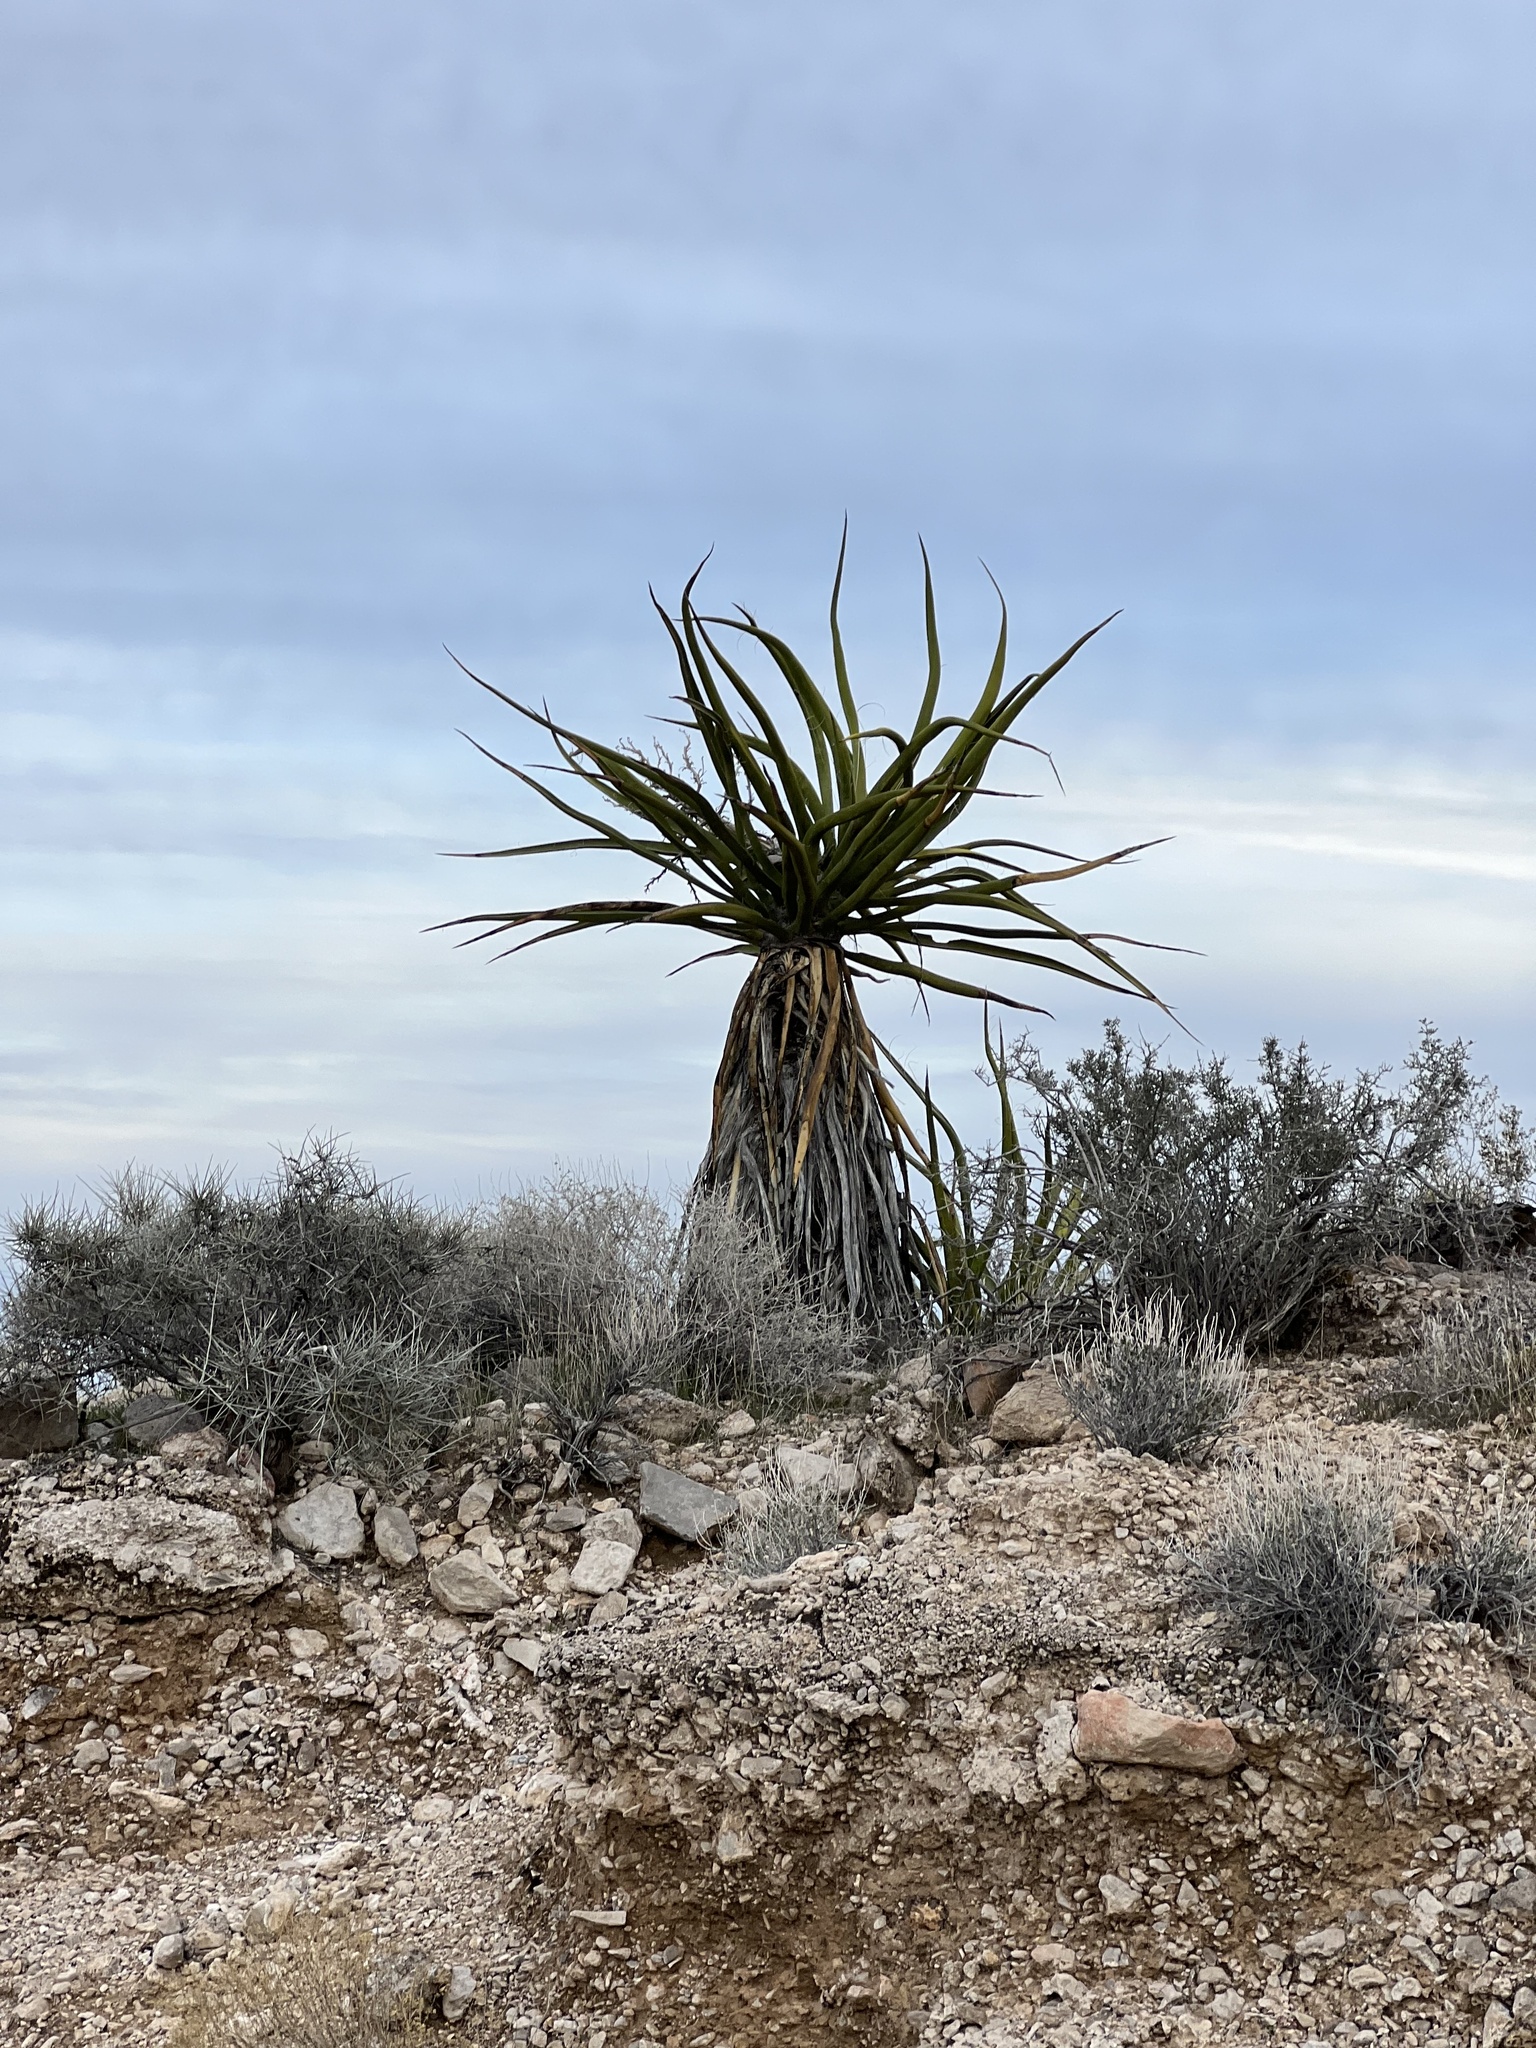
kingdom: Plantae
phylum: Tracheophyta
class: Liliopsida
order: Asparagales
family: Asparagaceae
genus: Yucca
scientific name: Yucca schidigera
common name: Mojave yucca
